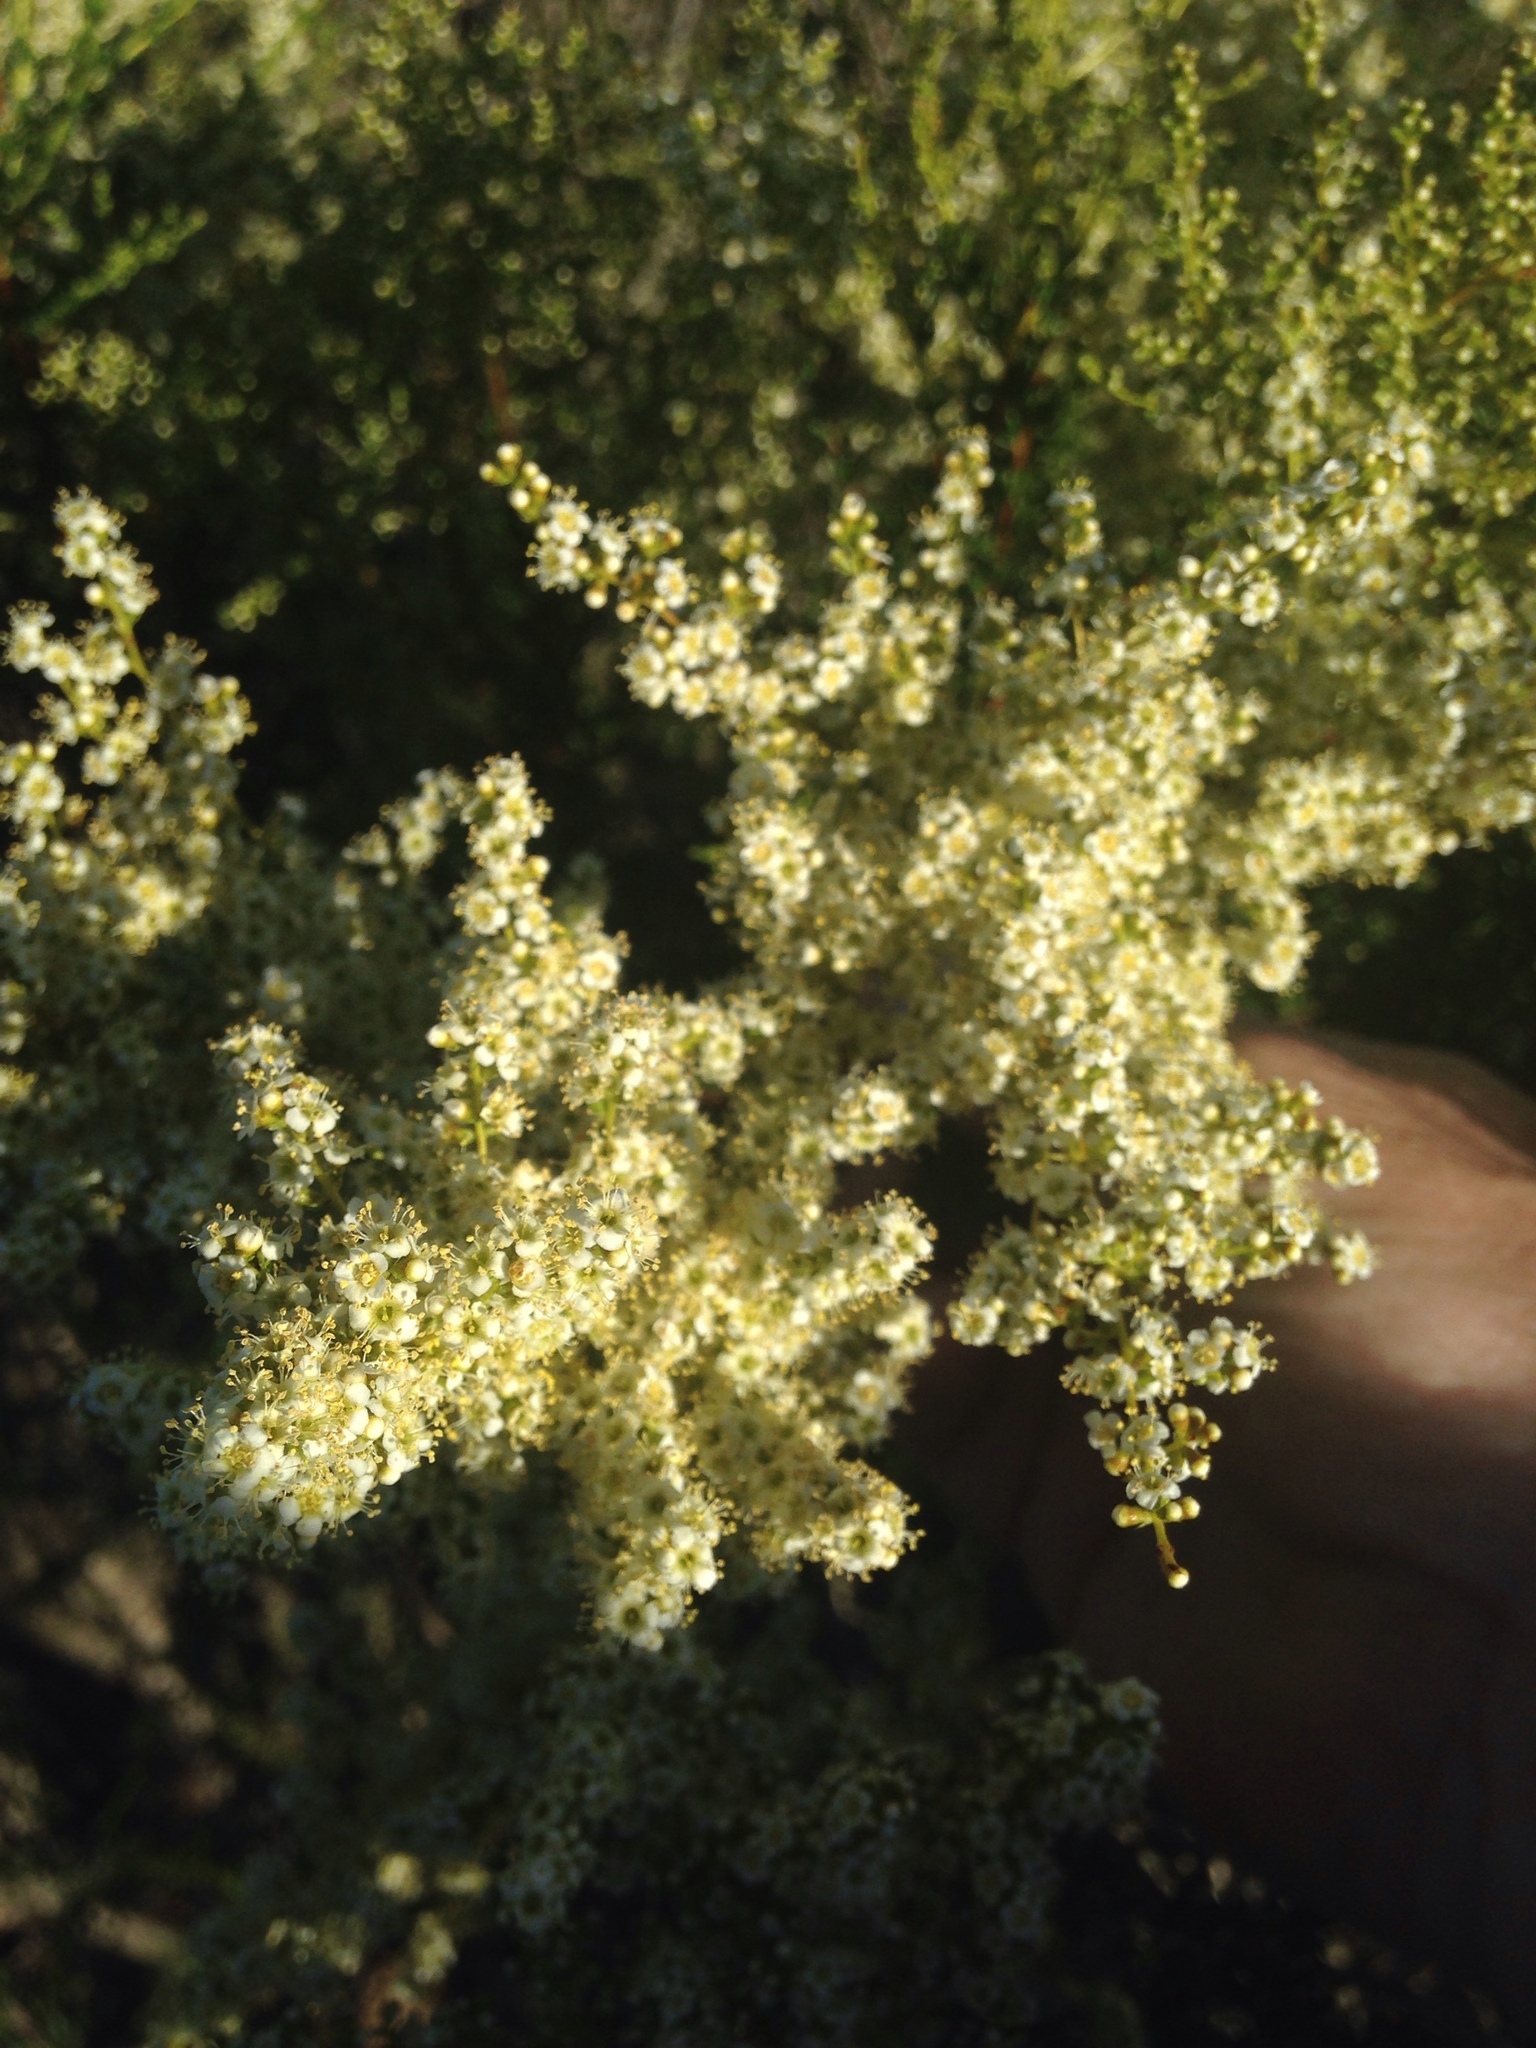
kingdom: Plantae
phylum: Tracheophyta
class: Magnoliopsida
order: Rosales
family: Rosaceae
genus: Adenostoma
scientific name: Adenostoma fasciculatum
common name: Chamise
